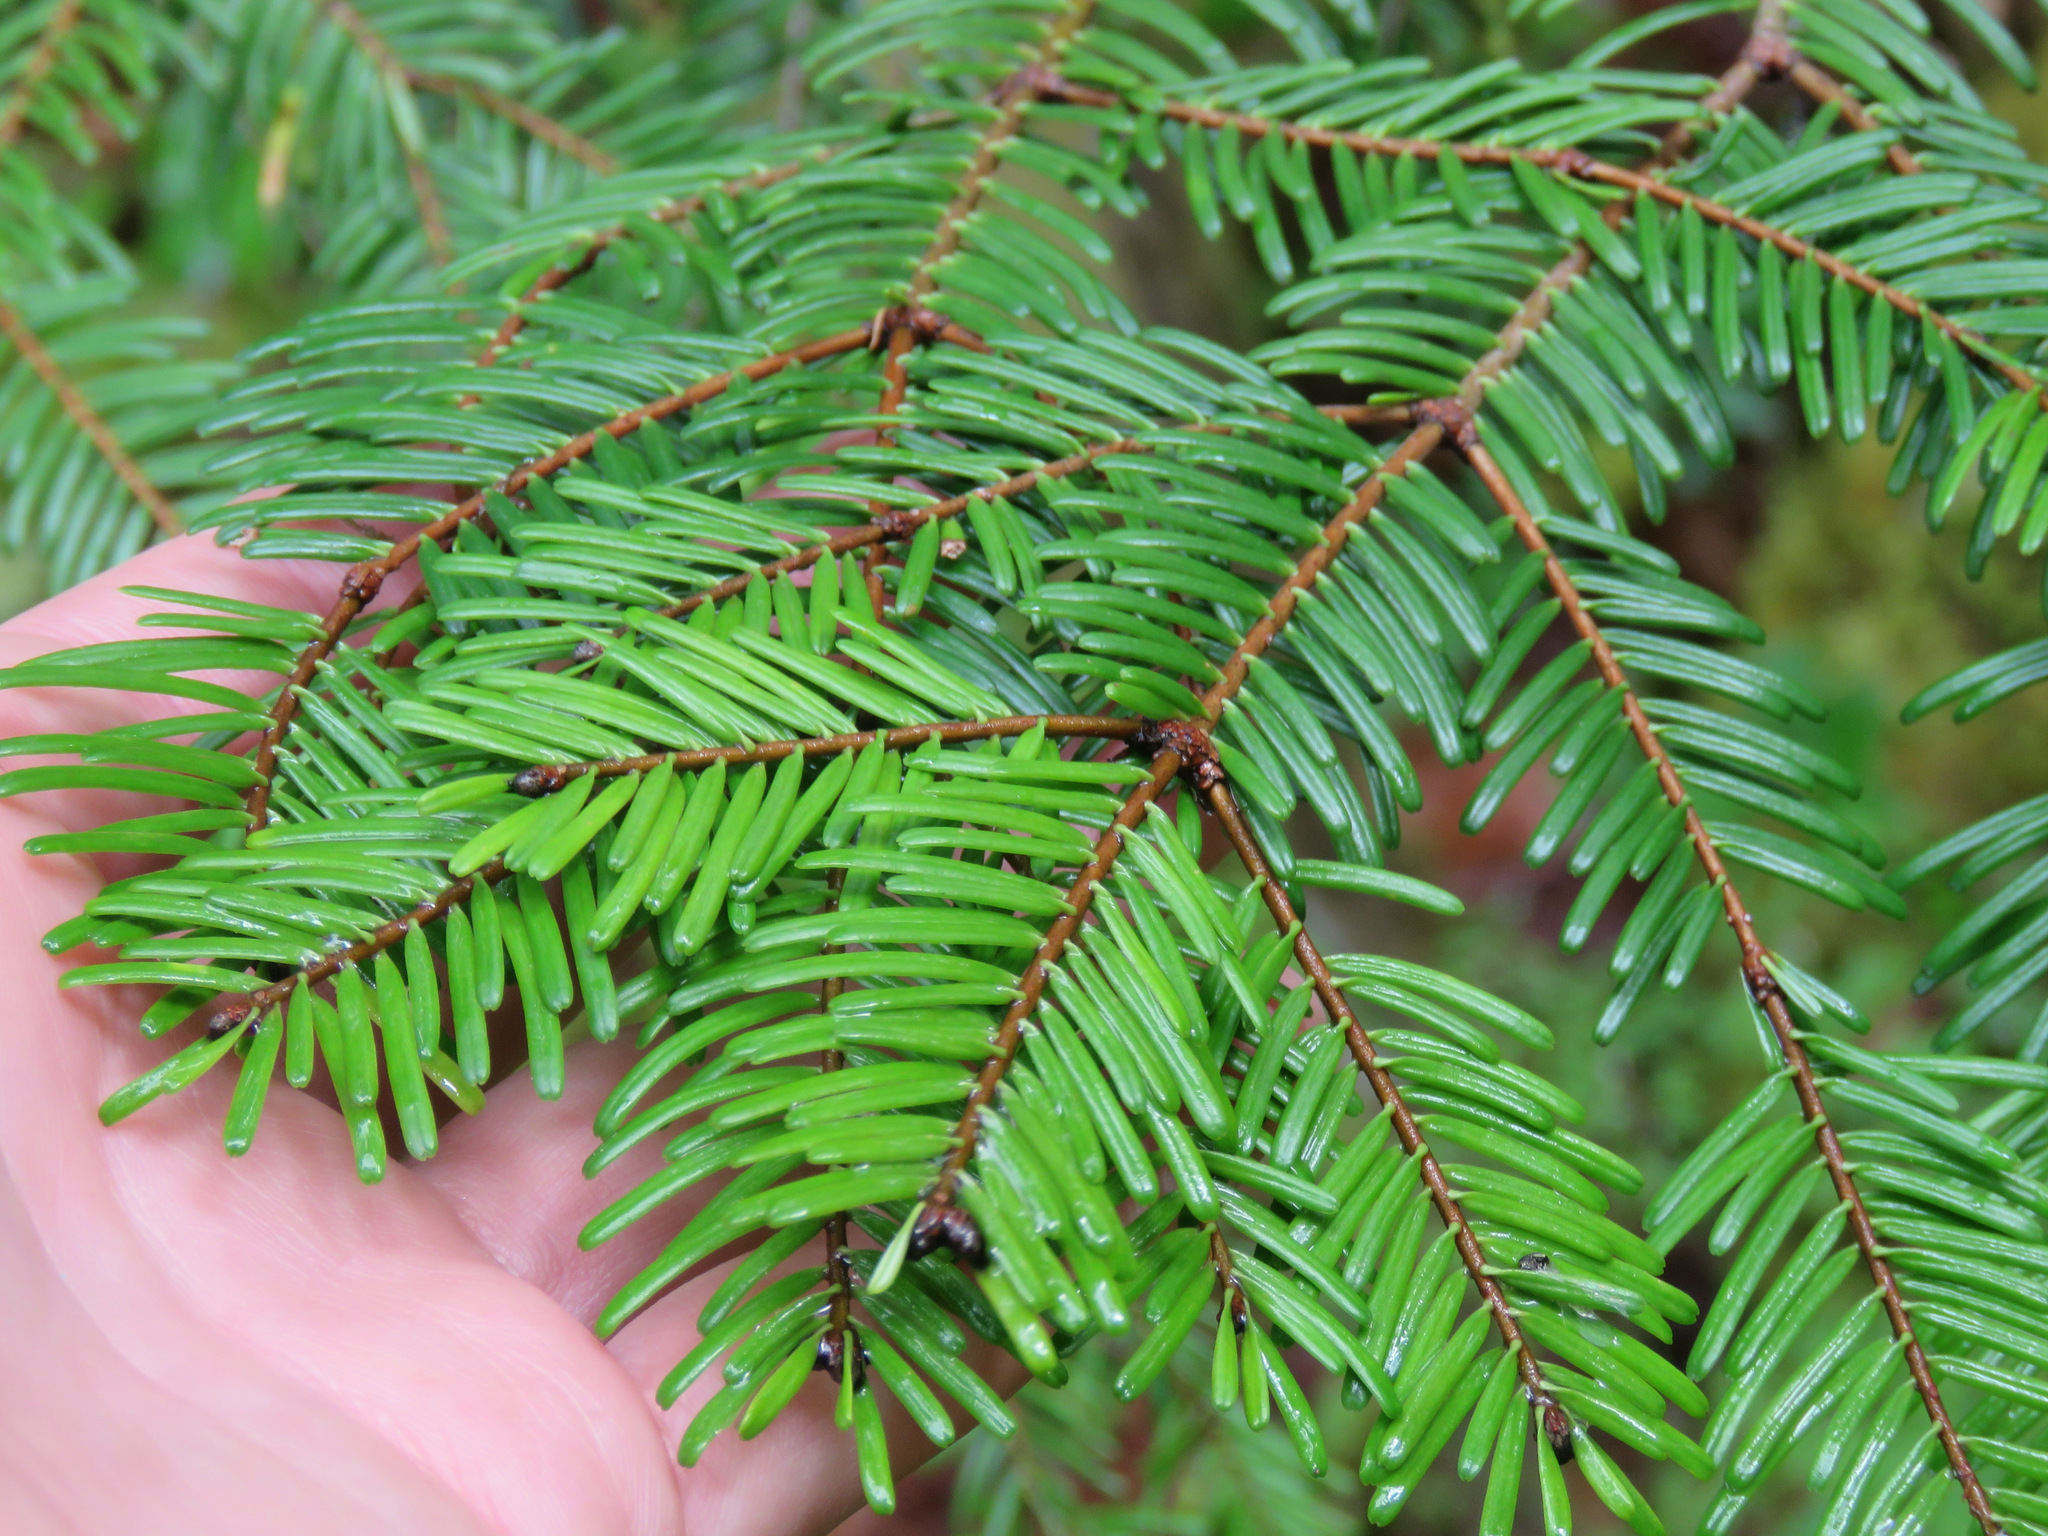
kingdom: Plantae
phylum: Tracheophyta
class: Pinopsida
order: Pinales
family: Pinaceae
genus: Abies
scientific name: Abies grandis
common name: Giant fir
